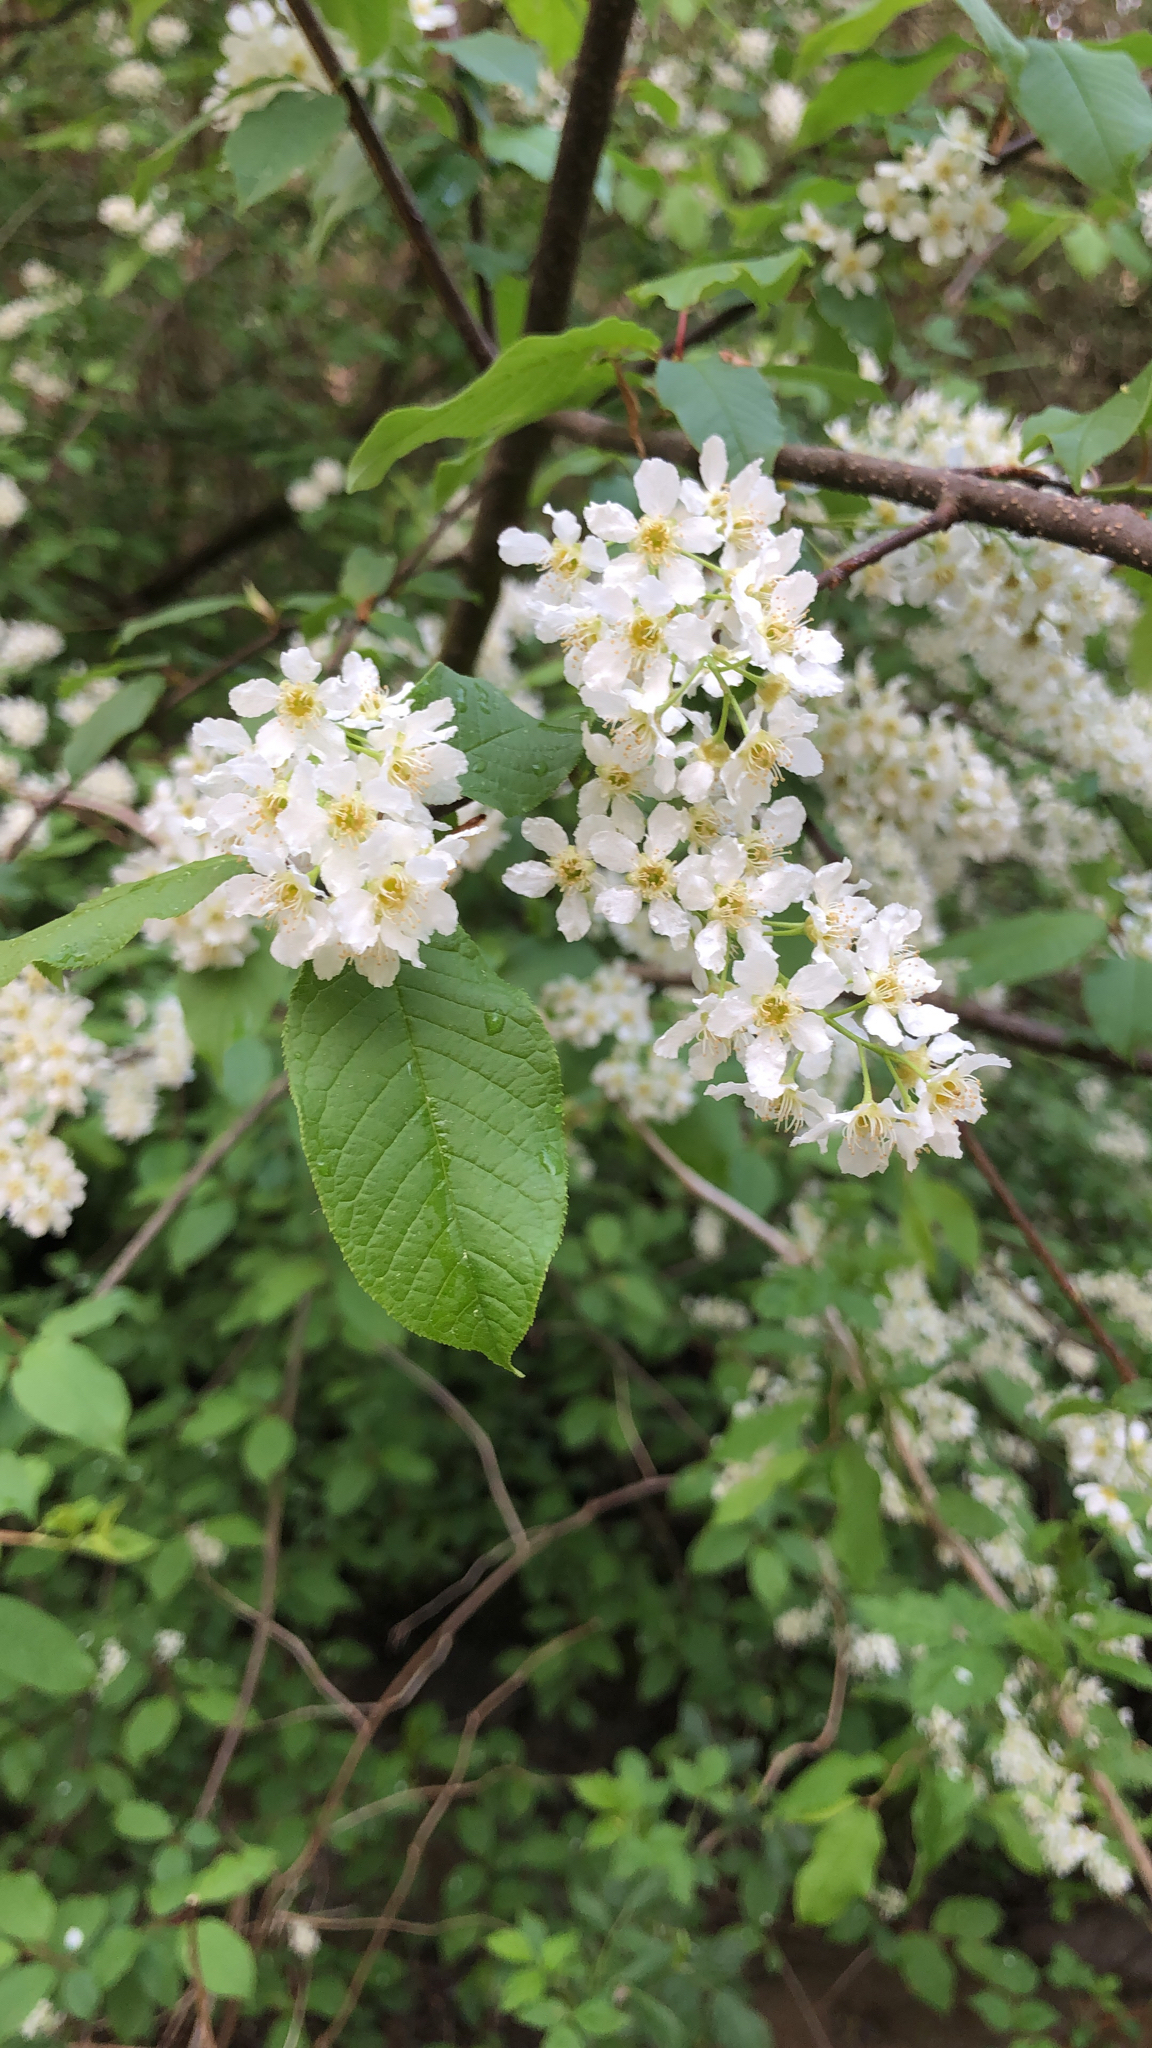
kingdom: Plantae
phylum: Tracheophyta
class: Magnoliopsida
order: Rosales
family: Rosaceae
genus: Prunus
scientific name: Prunus padus
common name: Bird cherry
